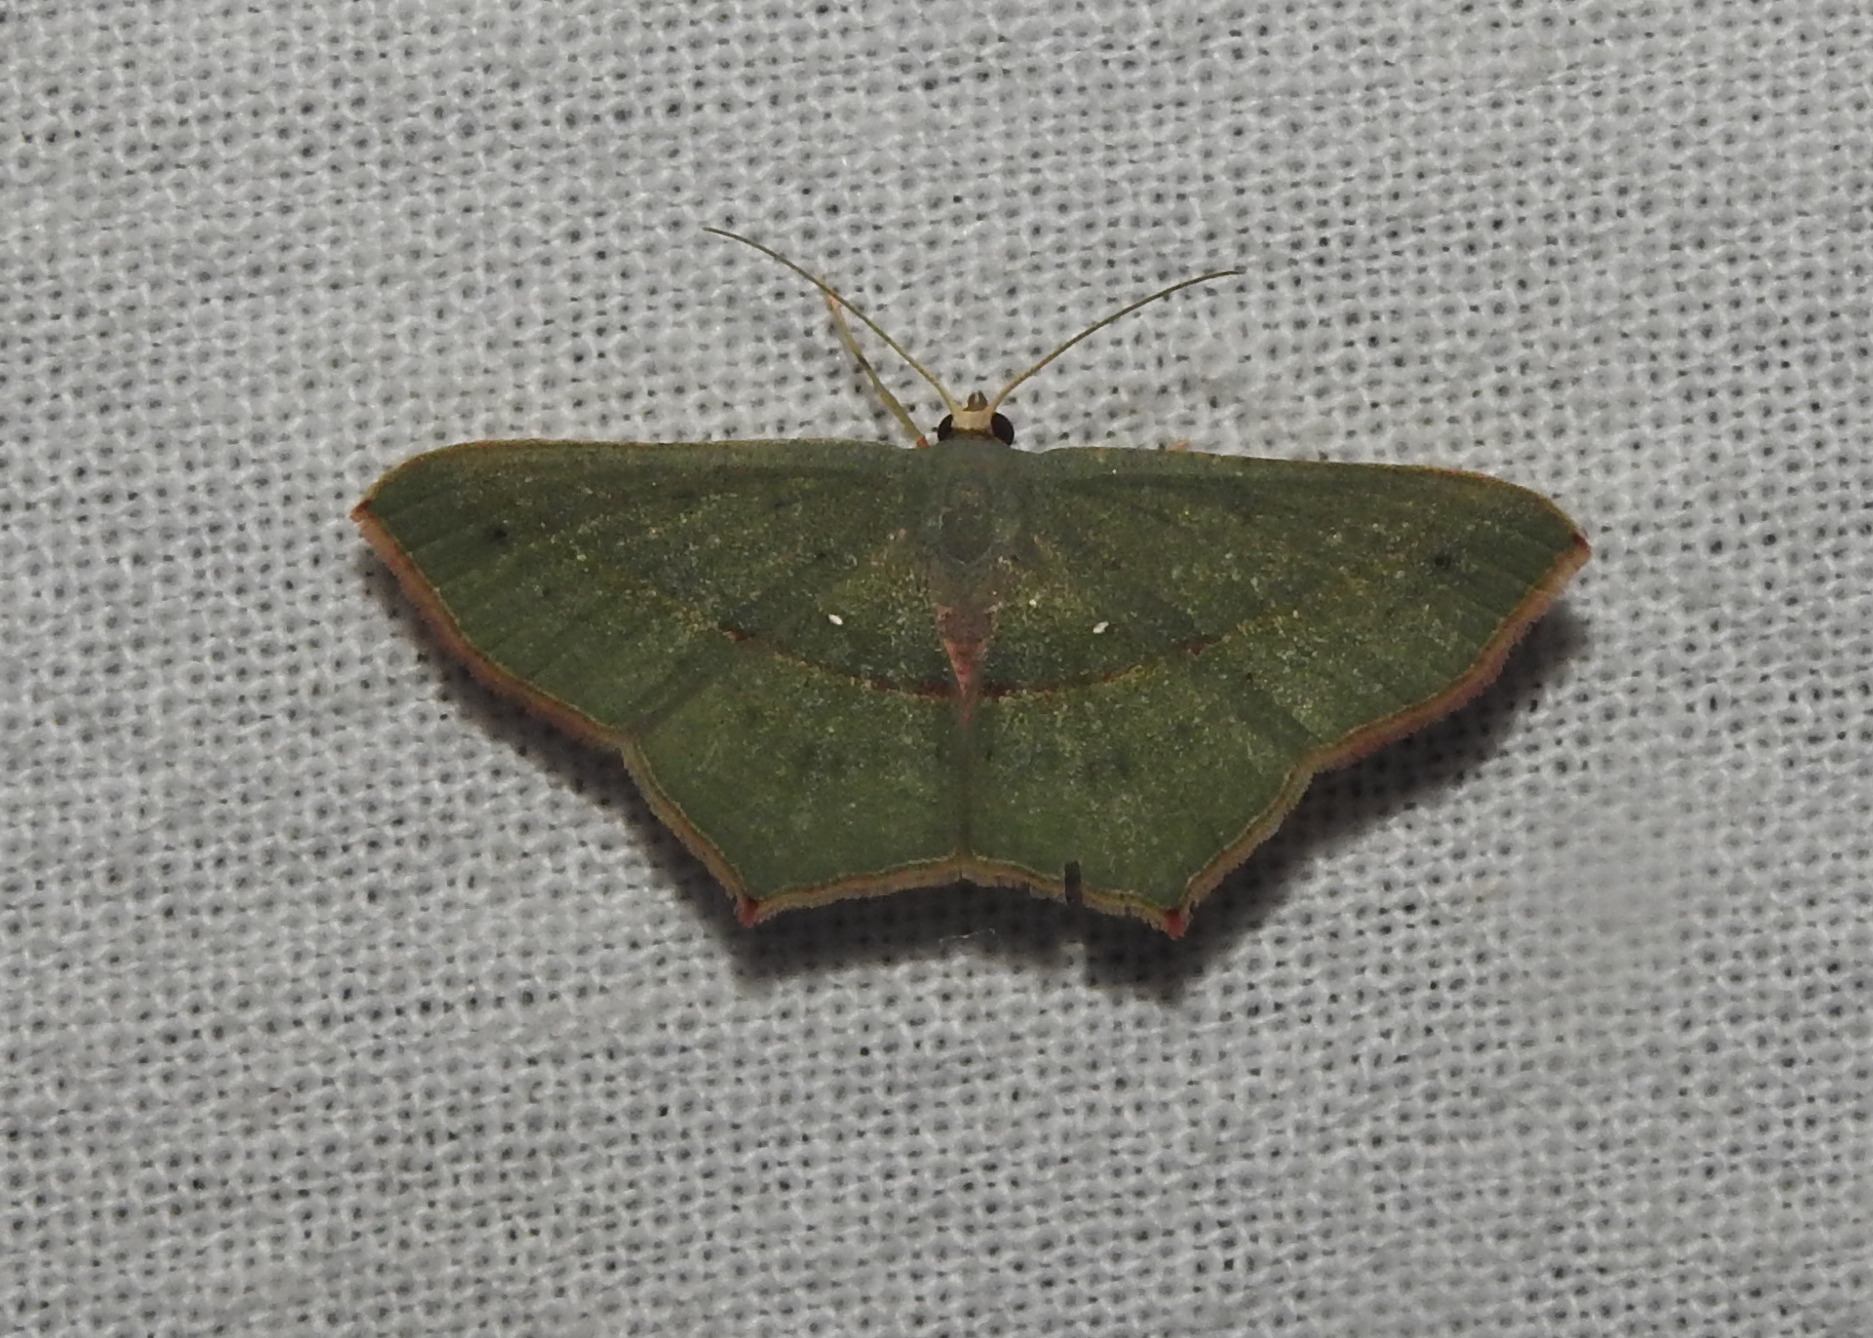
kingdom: Animalia
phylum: Arthropoda
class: Insecta
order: Lepidoptera
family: Geometridae
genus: Traminda
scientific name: Traminda mundissima
